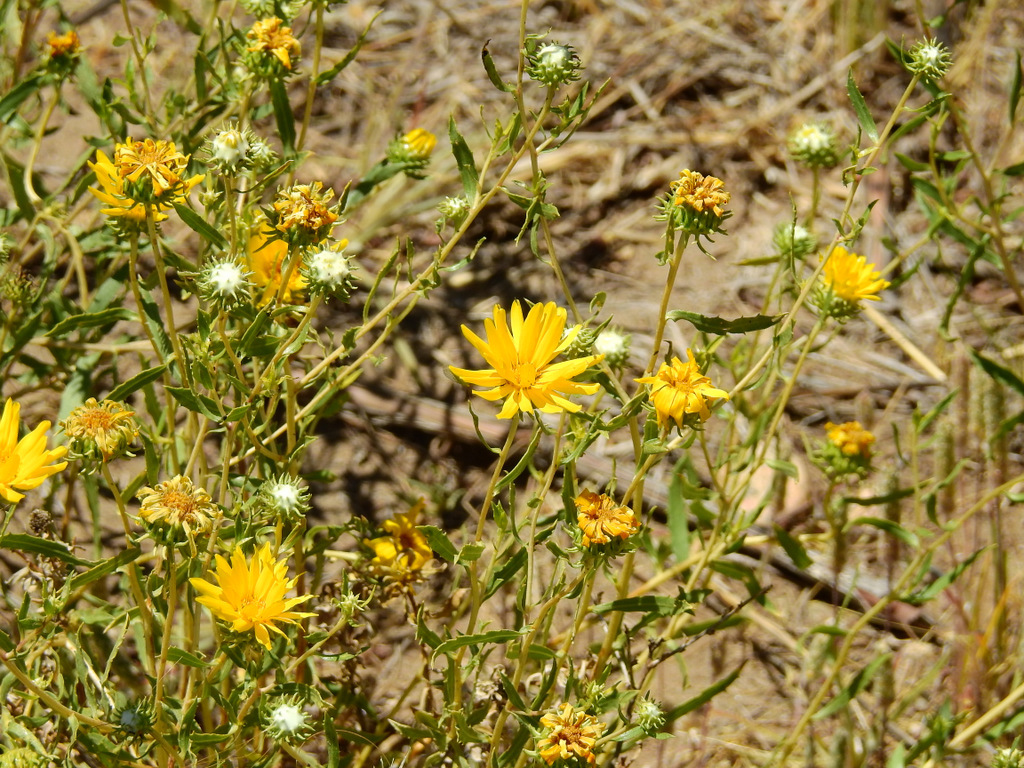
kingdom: Plantae
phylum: Tracheophyta
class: Magnoliopsida
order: Asterales
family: Asteraceae
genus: Grindelia
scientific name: Grindelia pulchella
